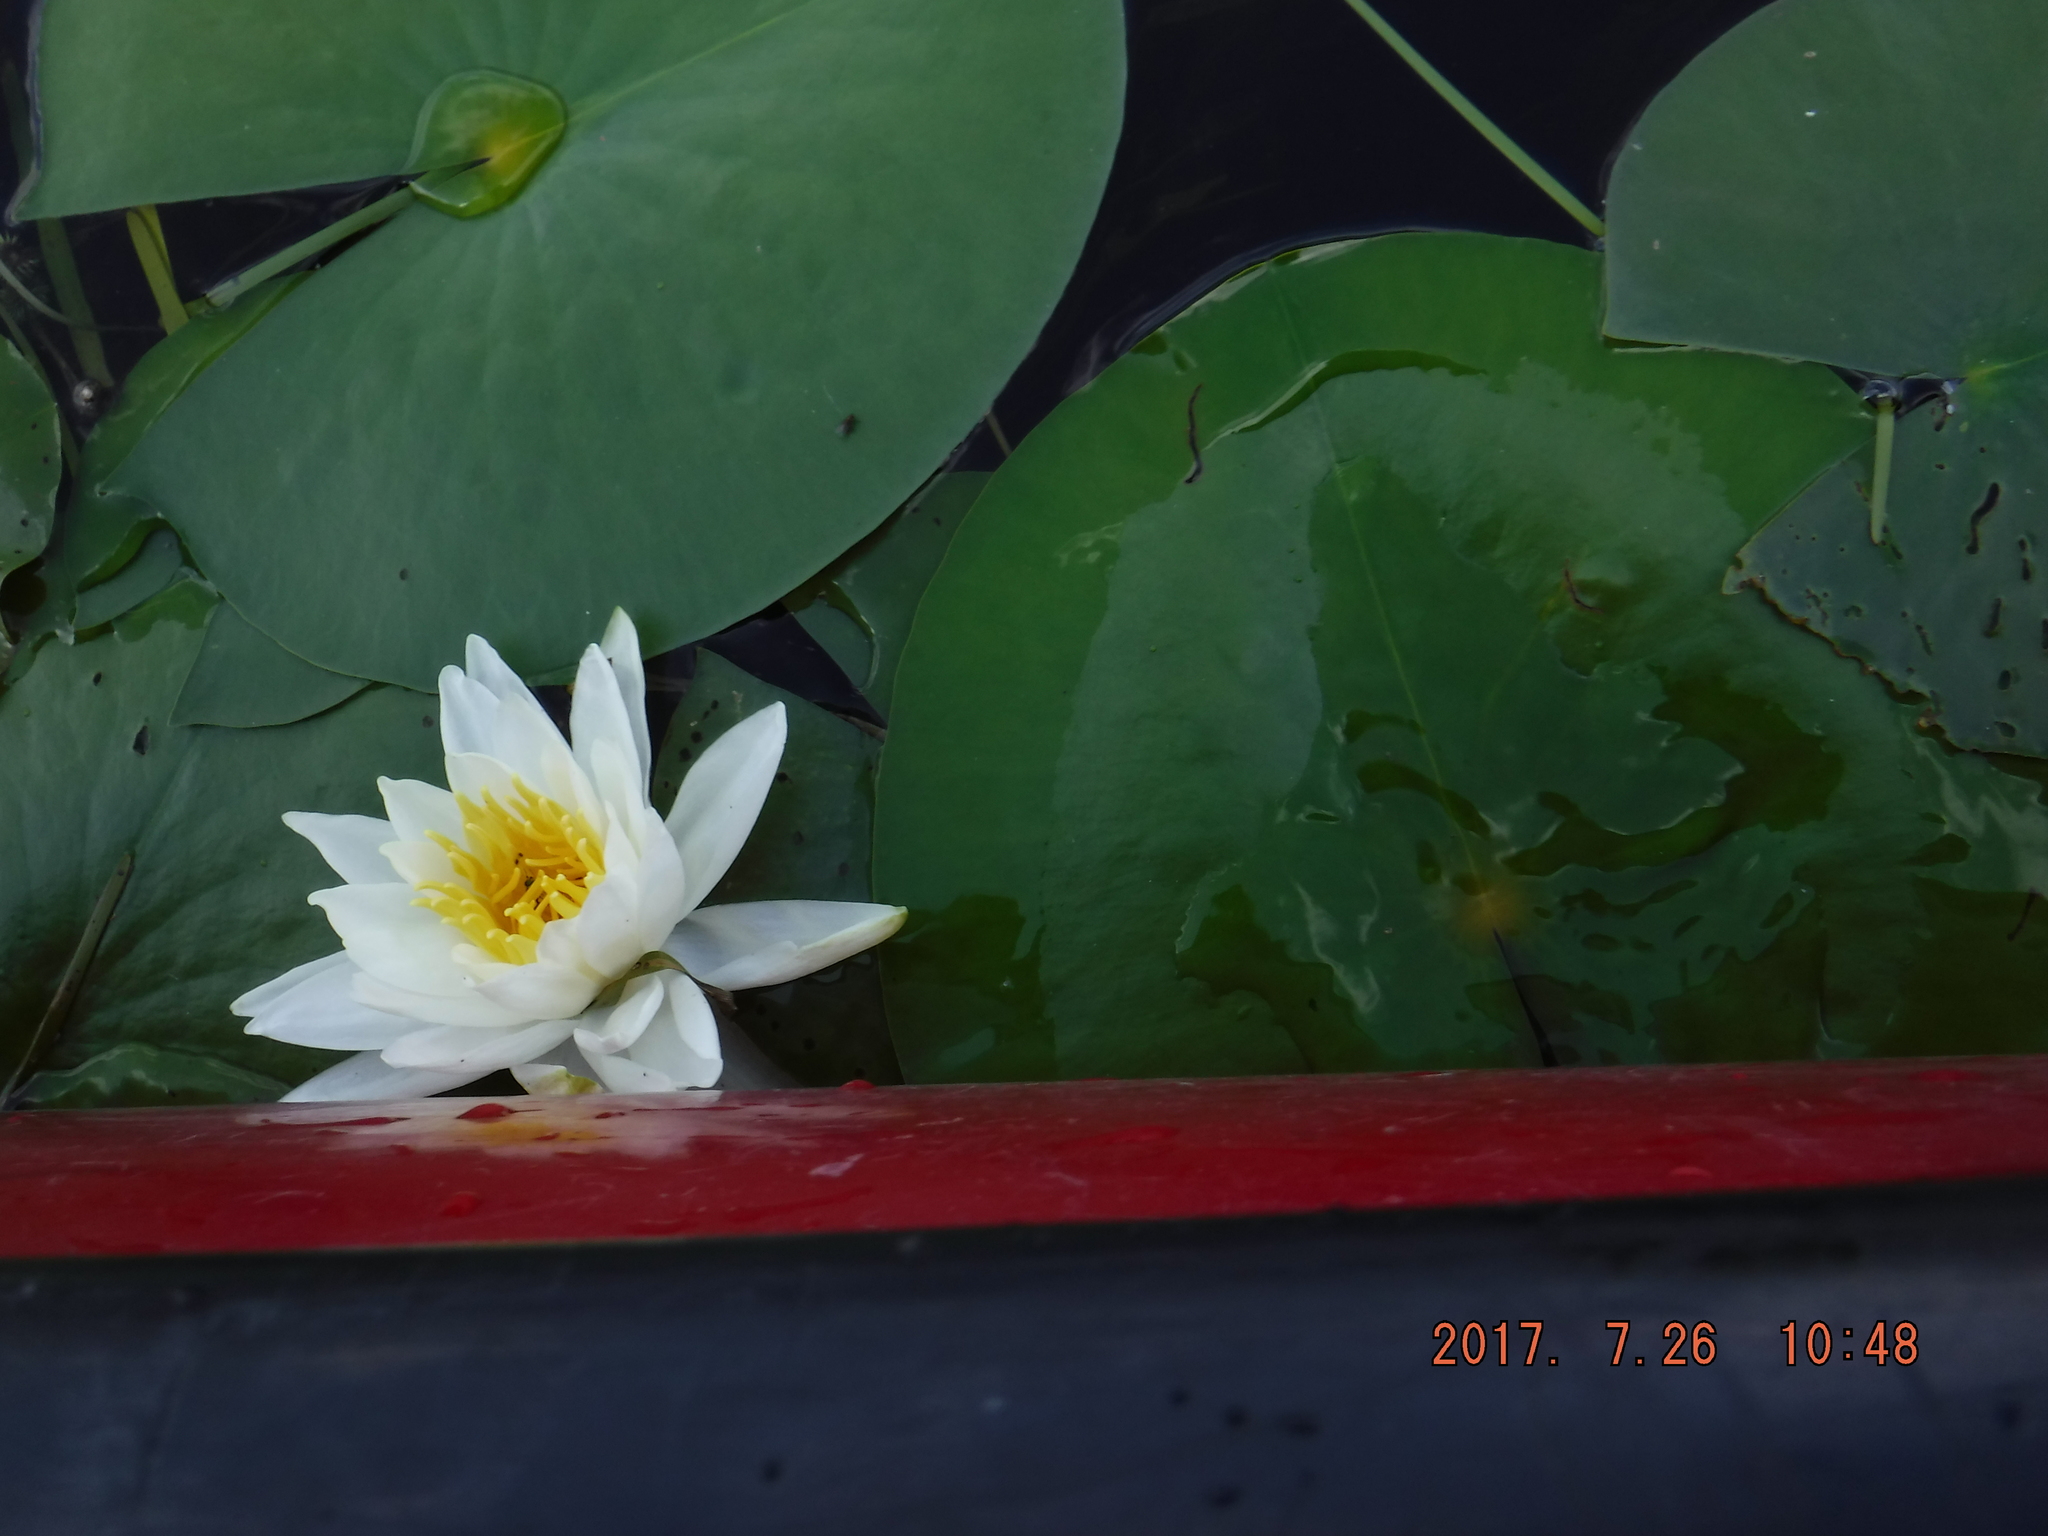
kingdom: Plantae
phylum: Tracheophyta
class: Magnoliopsida
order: Nymphaeales
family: Nymphaeaceae
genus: Nymphaea
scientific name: Nymphaea odorata
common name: Fragrant water-lily
